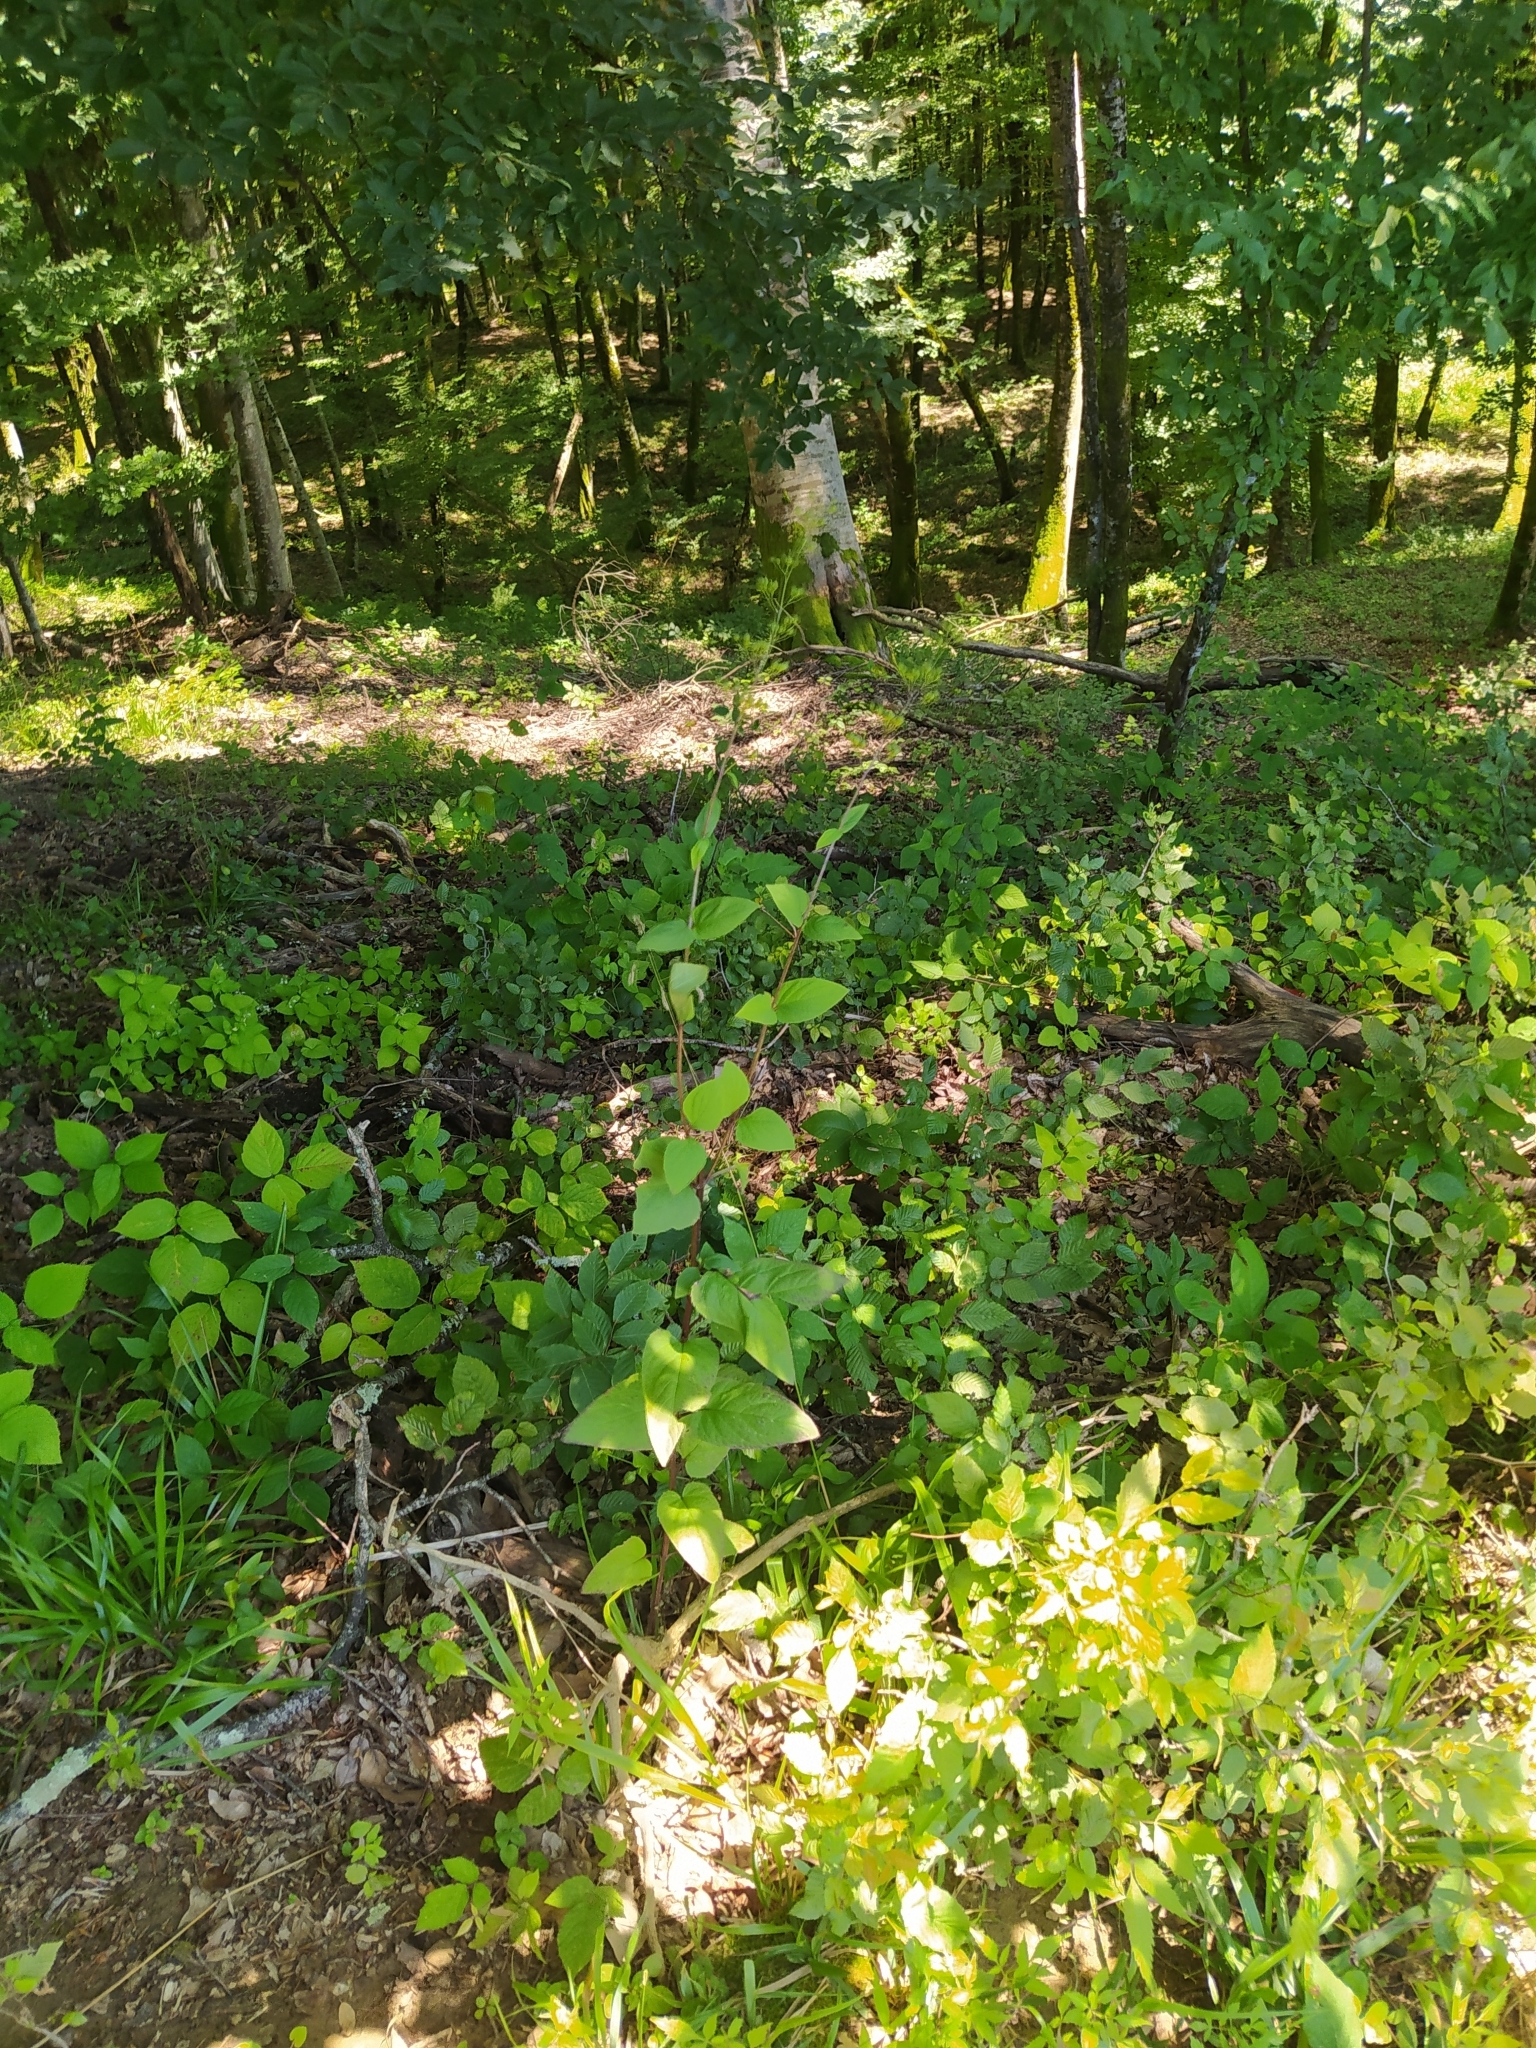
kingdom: Plantae
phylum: Tracheophyta
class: Magnoliopsida
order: Lamiales
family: Scrophulariaceae
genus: Scrophularia
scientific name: Scrophularia nodosa
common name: Common figwort
